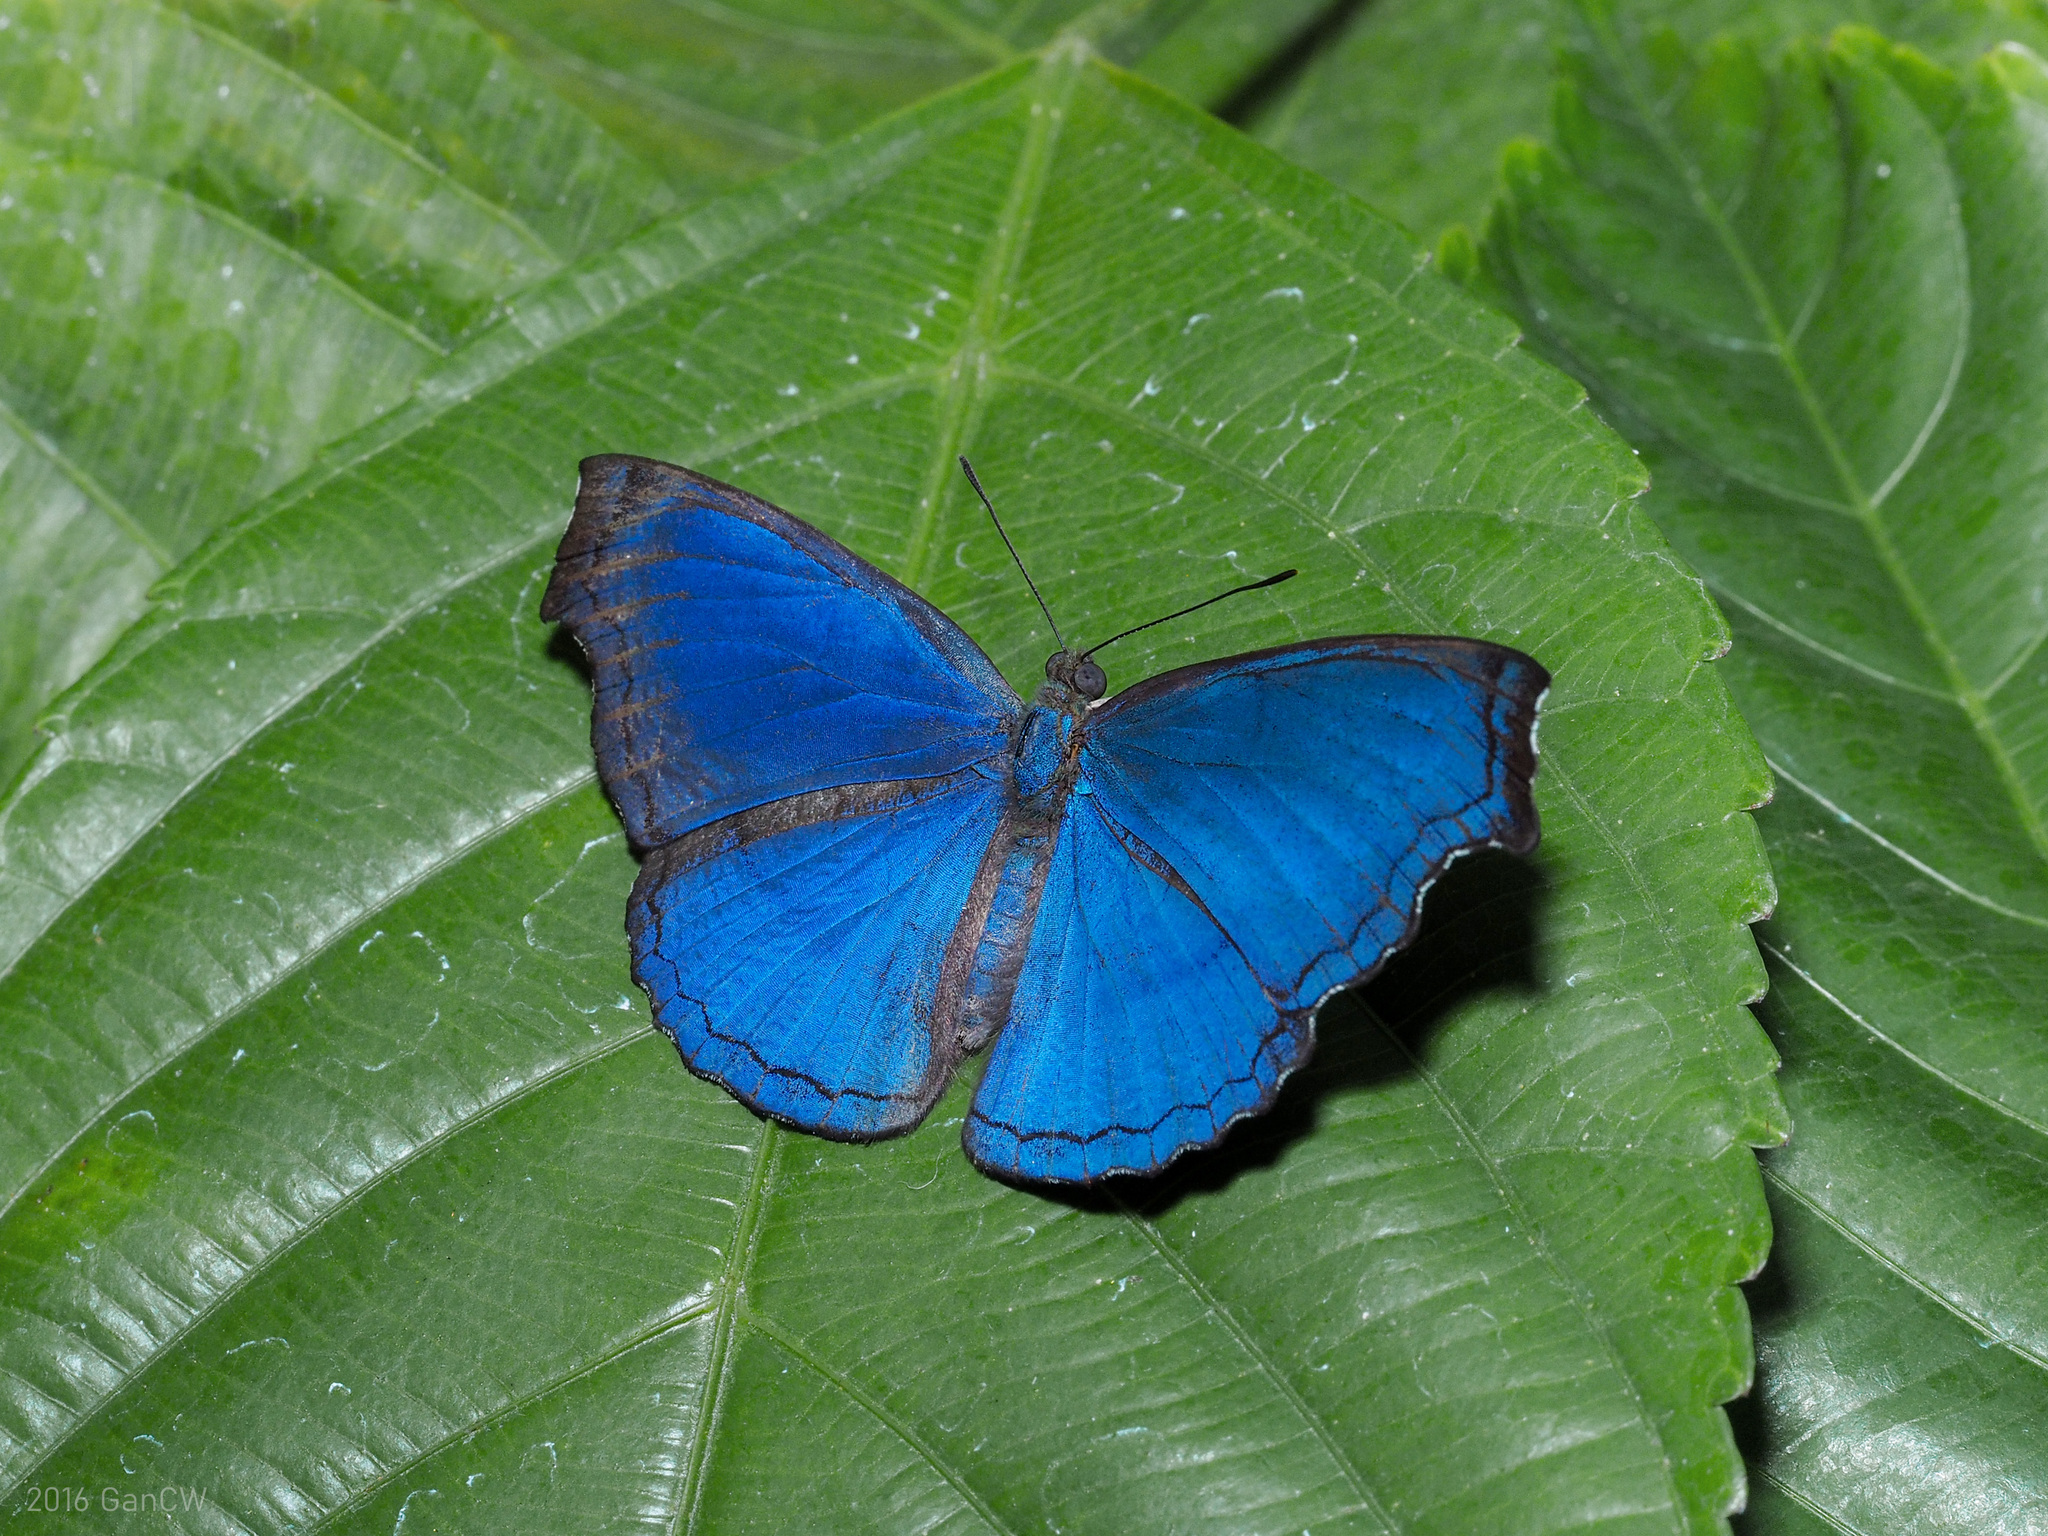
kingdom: Animalia
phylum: Arthropoda
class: Insecta
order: Lepidoptera
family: Nymphalidae
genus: Laringa
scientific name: Laringa castelnaui
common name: Blue dandy
